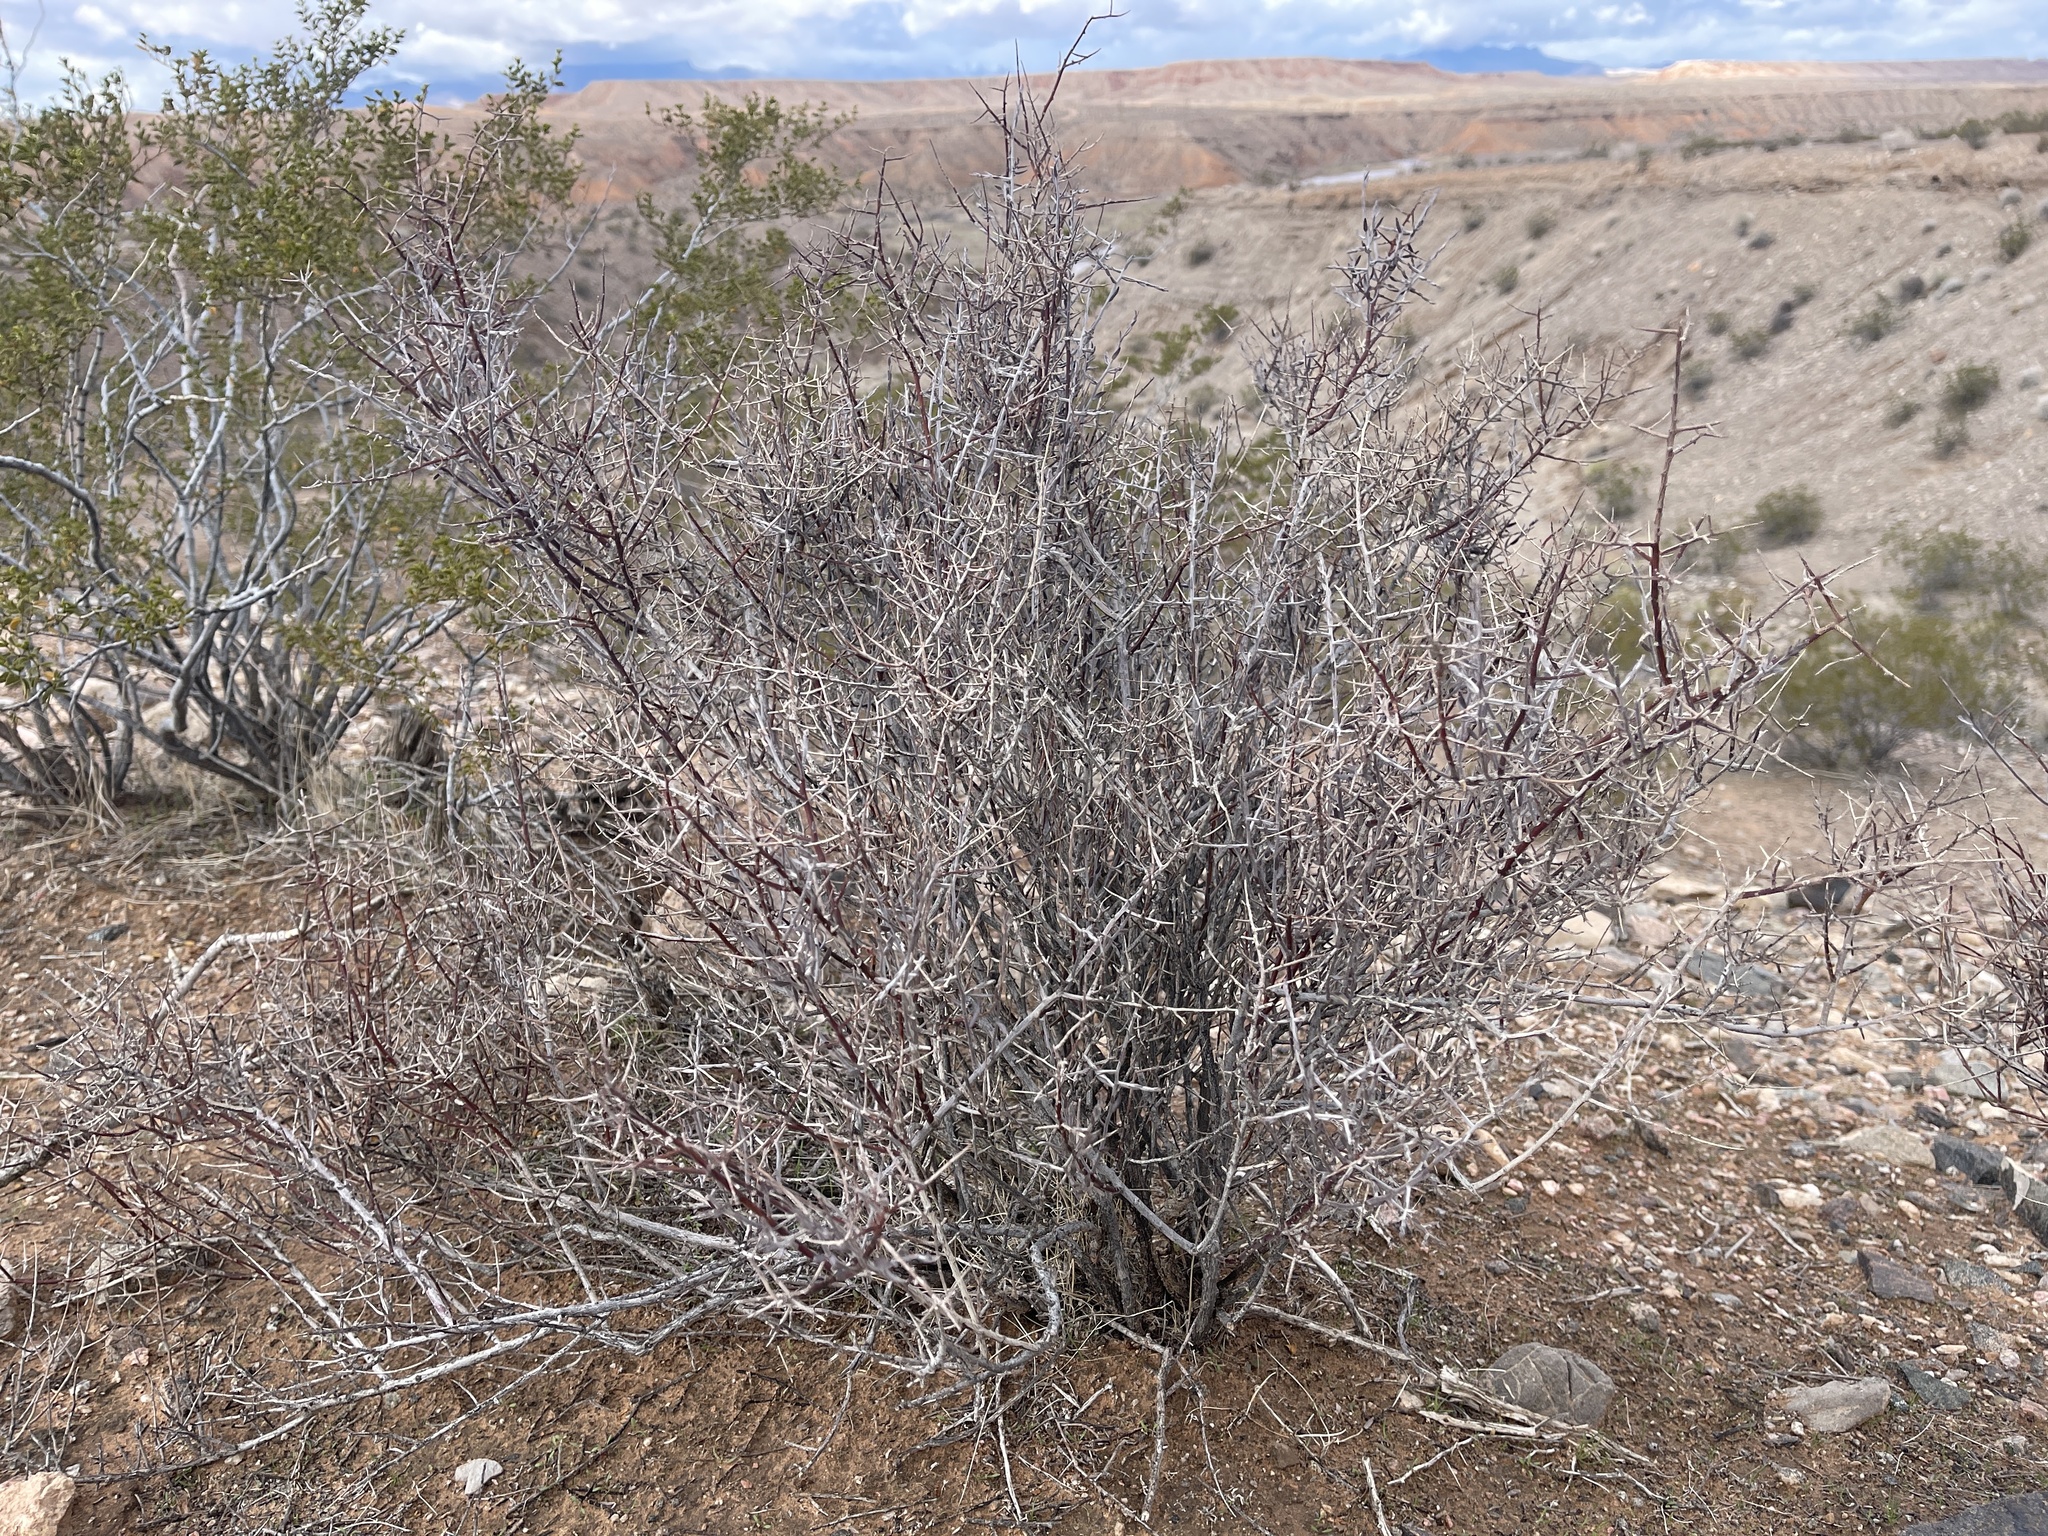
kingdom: Plantae
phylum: Tracheophyta
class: Magnoliopsida
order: Zygophyllales
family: Krameriaceae
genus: Krameria
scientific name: Krameria bicolor
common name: White ratany
